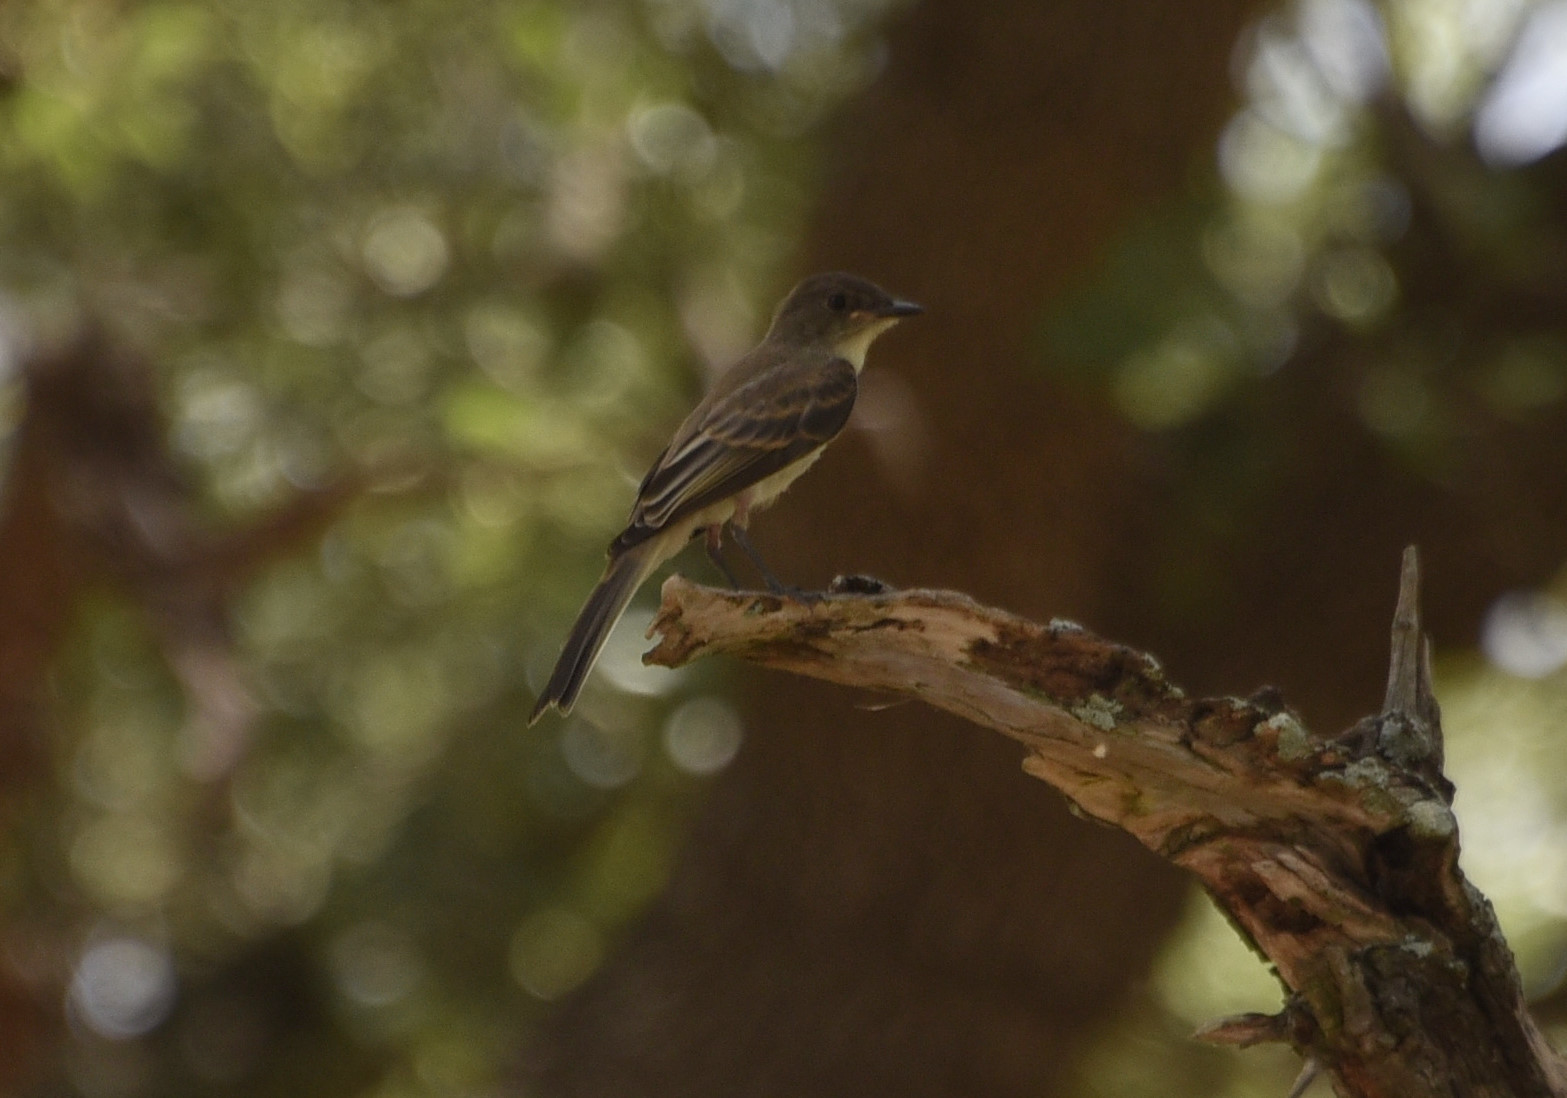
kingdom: Animalia
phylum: Chordata
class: Aves
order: Passeriformes
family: Tyrannidae
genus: Sayornis
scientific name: Sayornis phoebe
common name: Eastern phoebe
